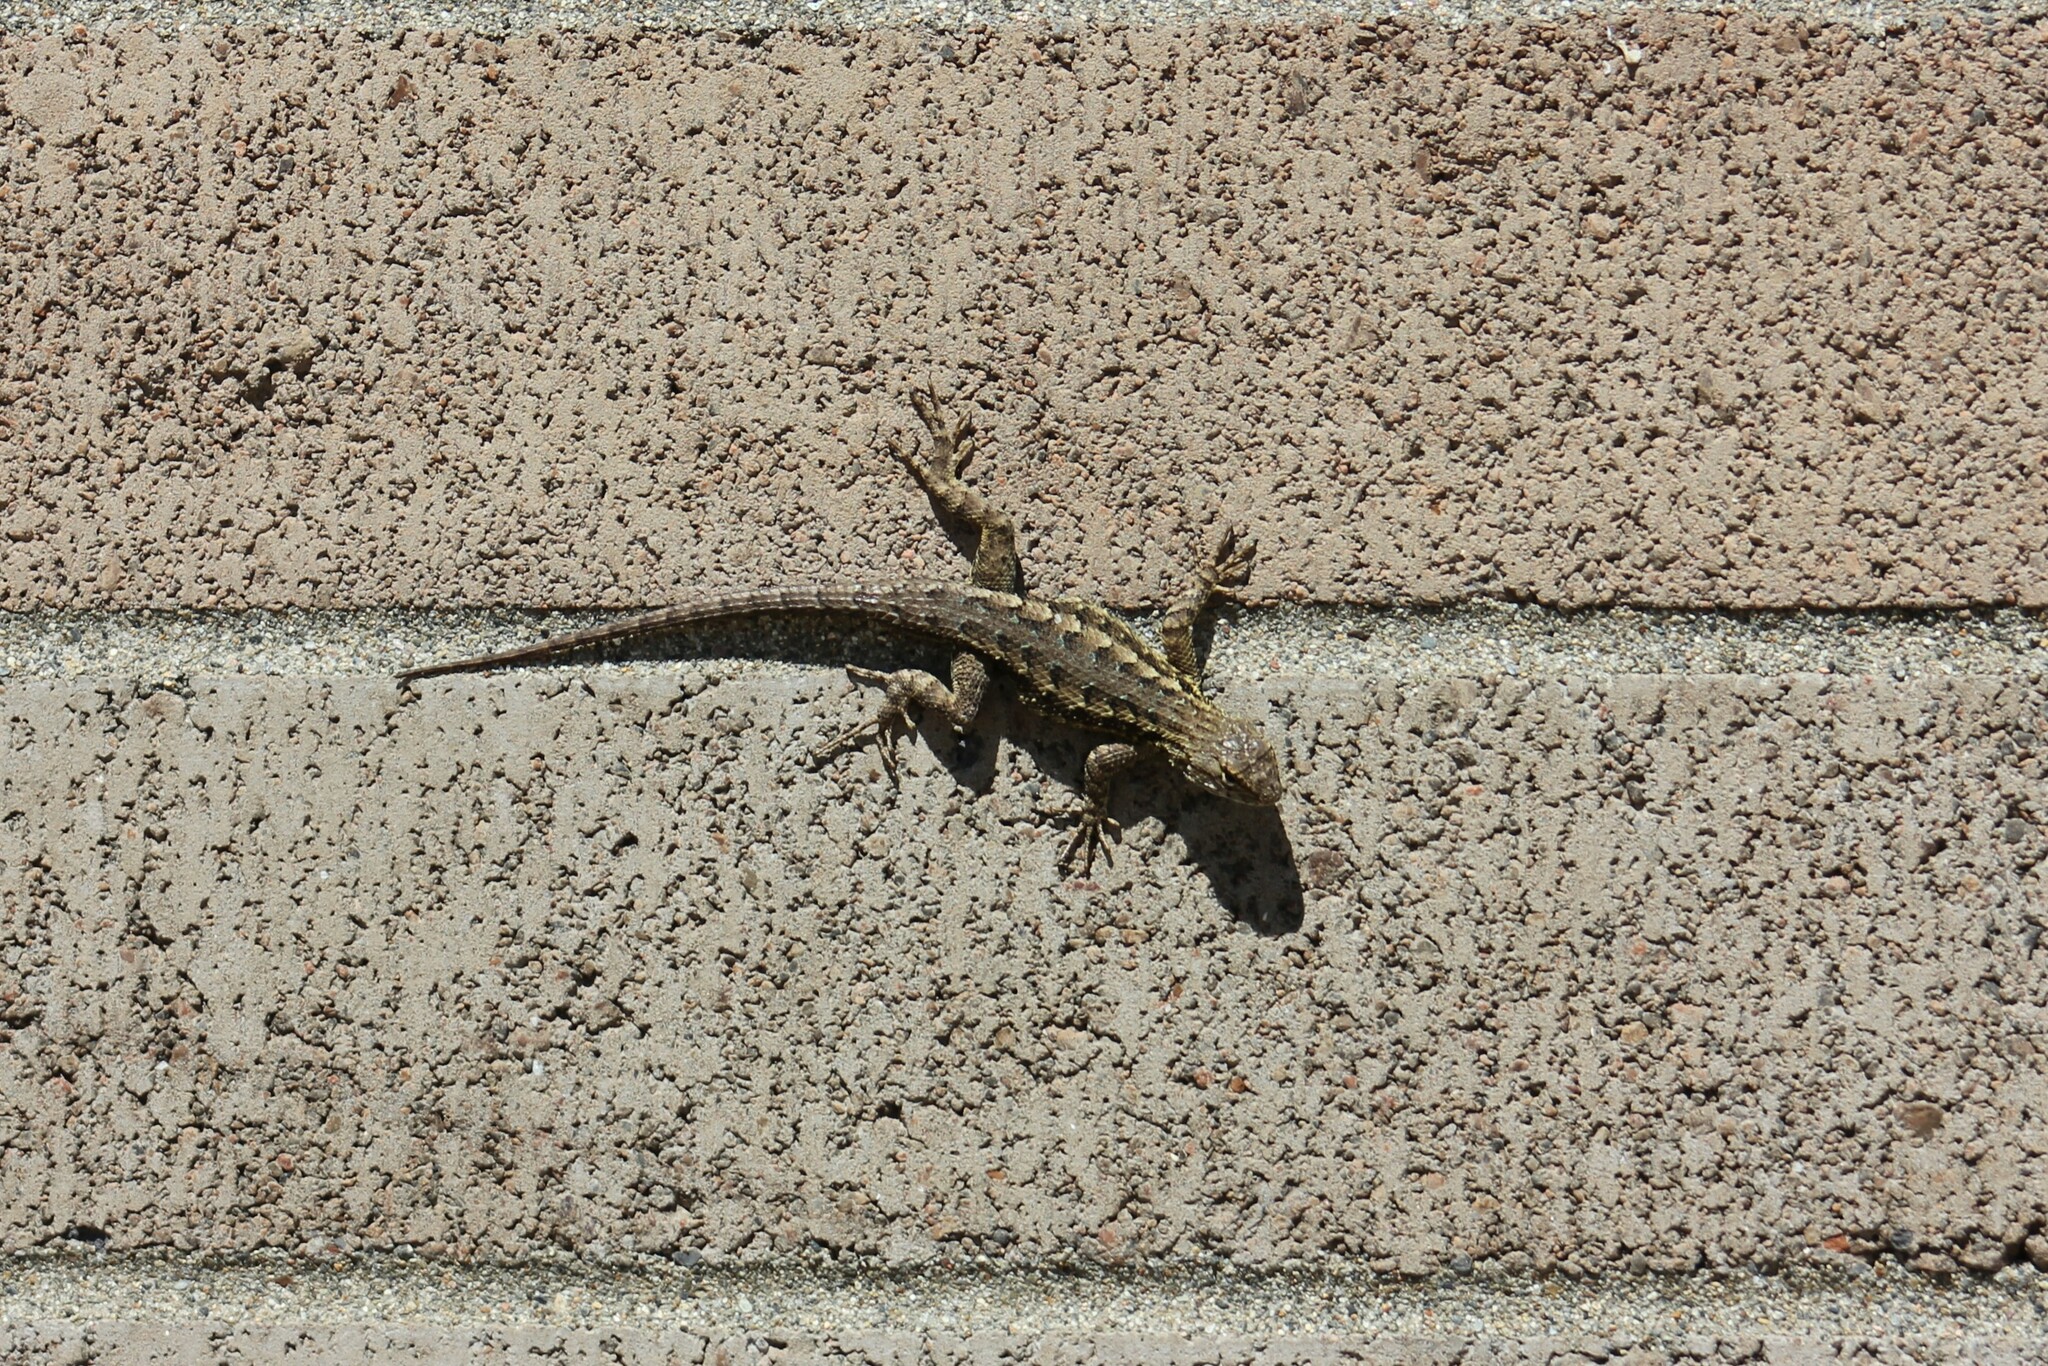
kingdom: Animalia
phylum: Chordata
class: Squamata
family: Phrynosomatidae
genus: Sceloporus
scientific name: Sceloporus occidentalis
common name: Western fence lizard
